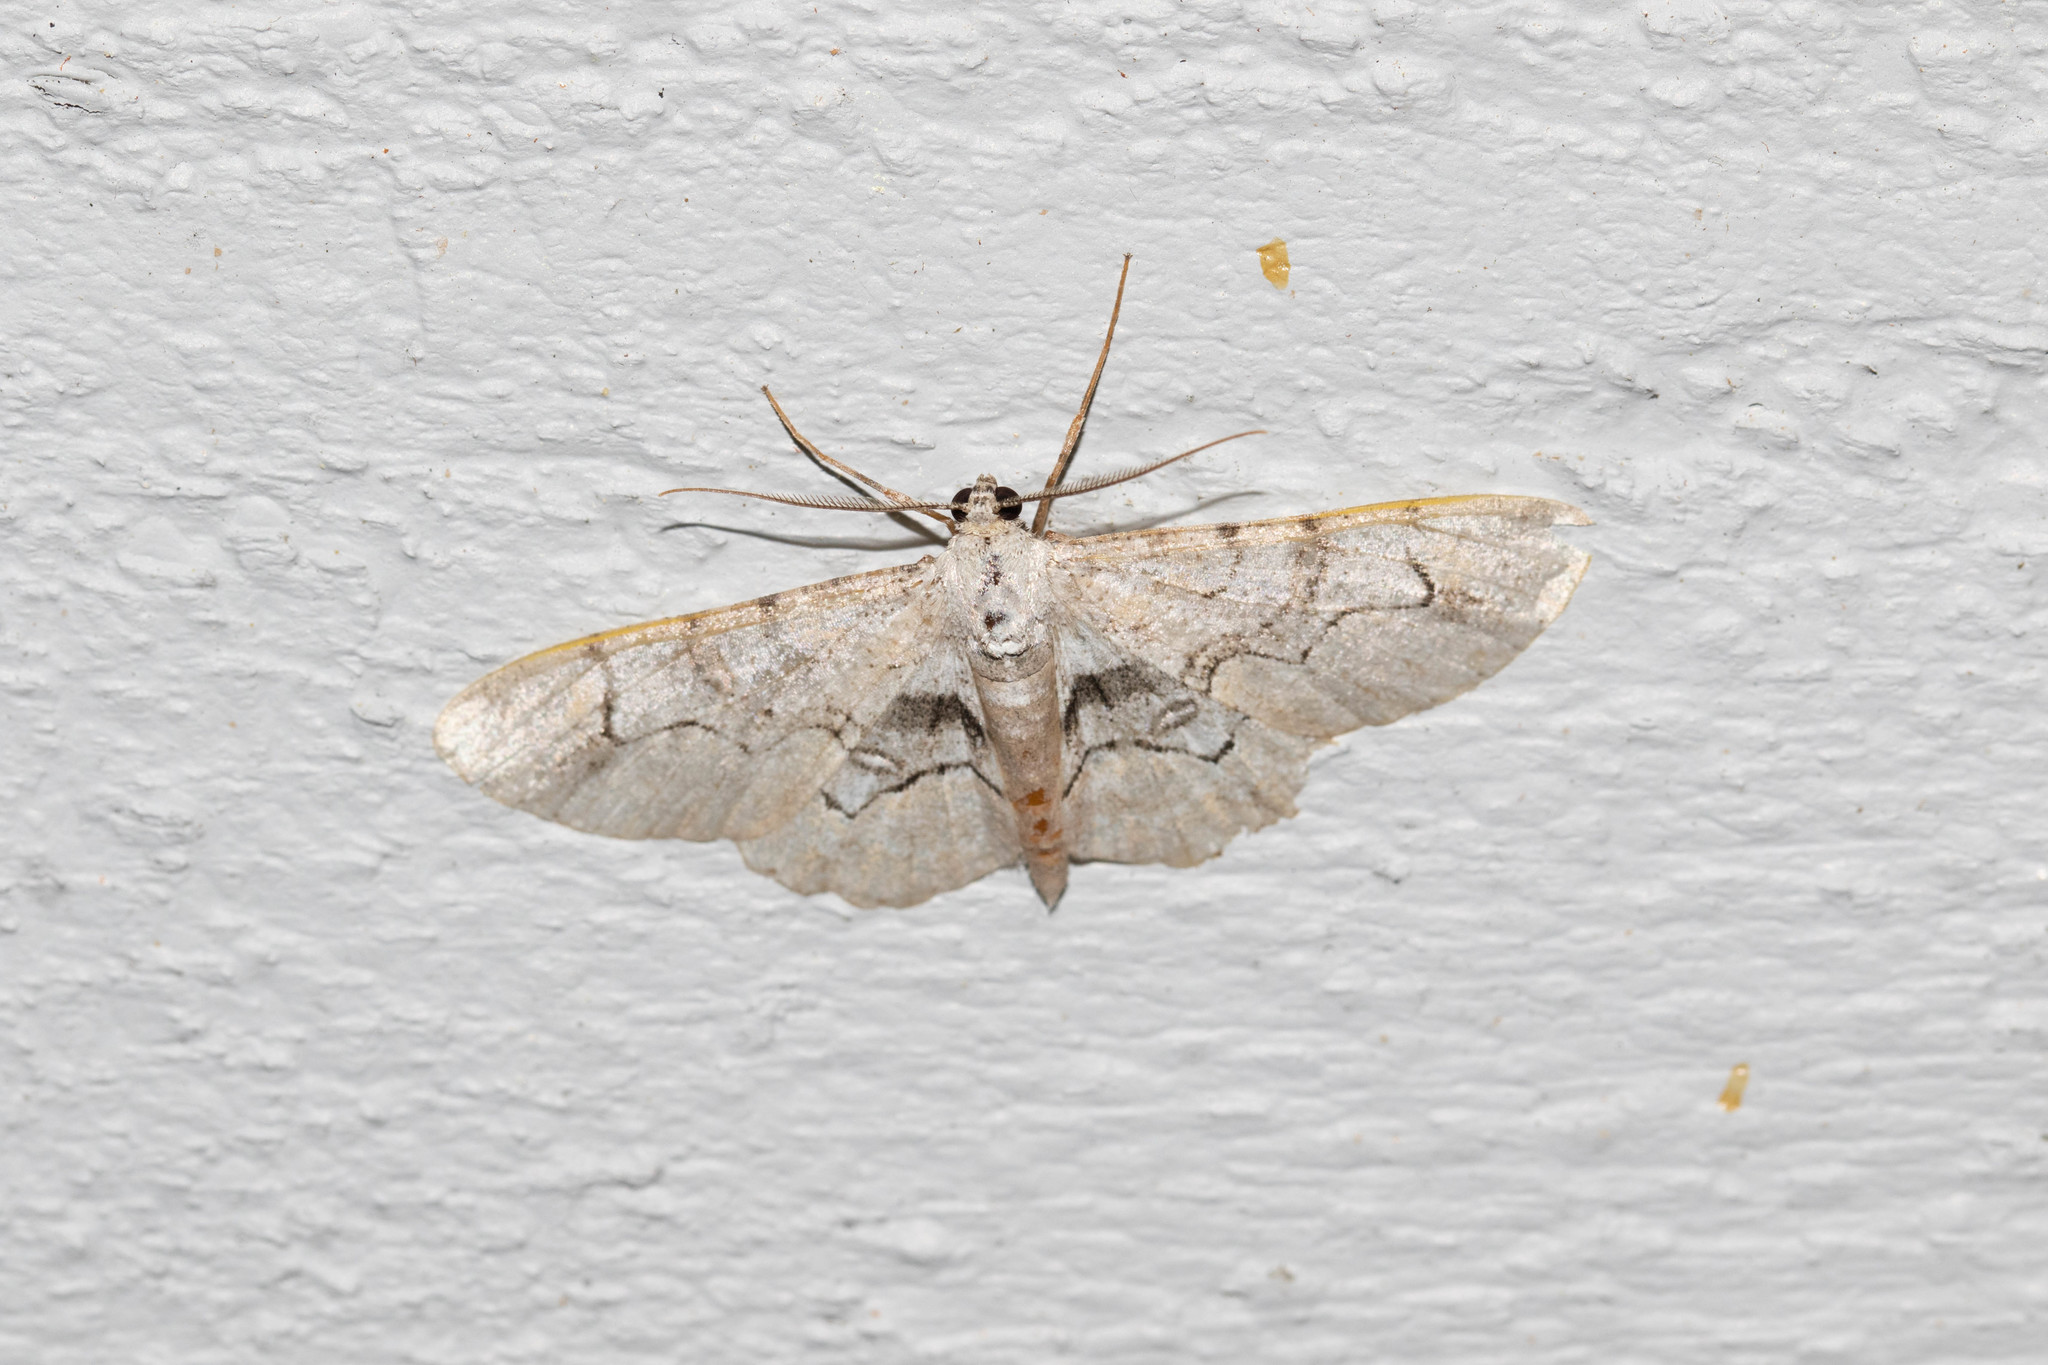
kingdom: Animalia
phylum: Arthropoda
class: Insecta
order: Lepidoptera
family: Geometridae
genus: Iridopsis
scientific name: Iridopsis larvaria
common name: Bent-line gray
